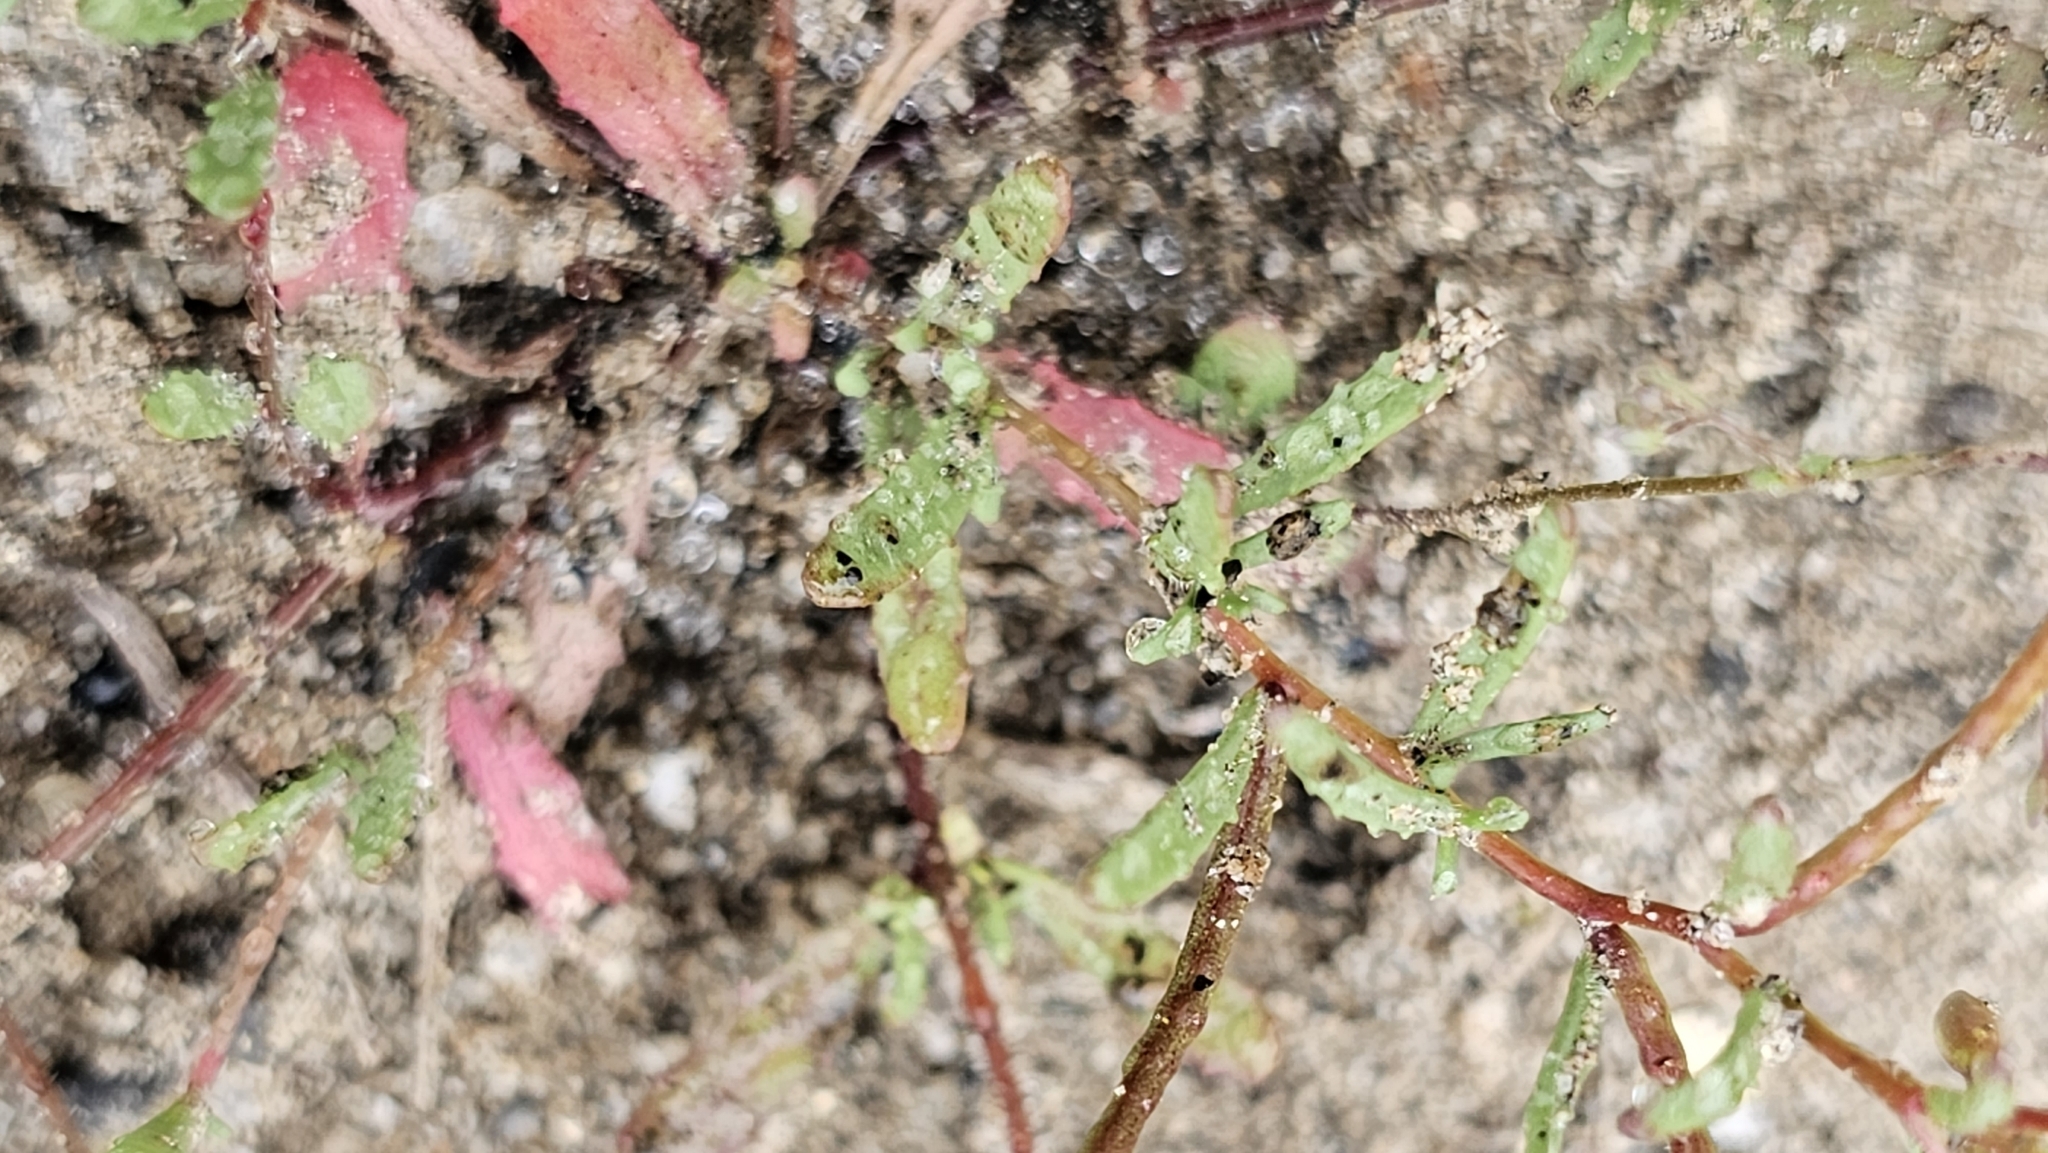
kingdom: Plantae
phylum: Tracheophyta
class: Magnoliopsida
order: Myrtales
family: Onagraceae
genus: Camissonia
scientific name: Camissonia sierrae
